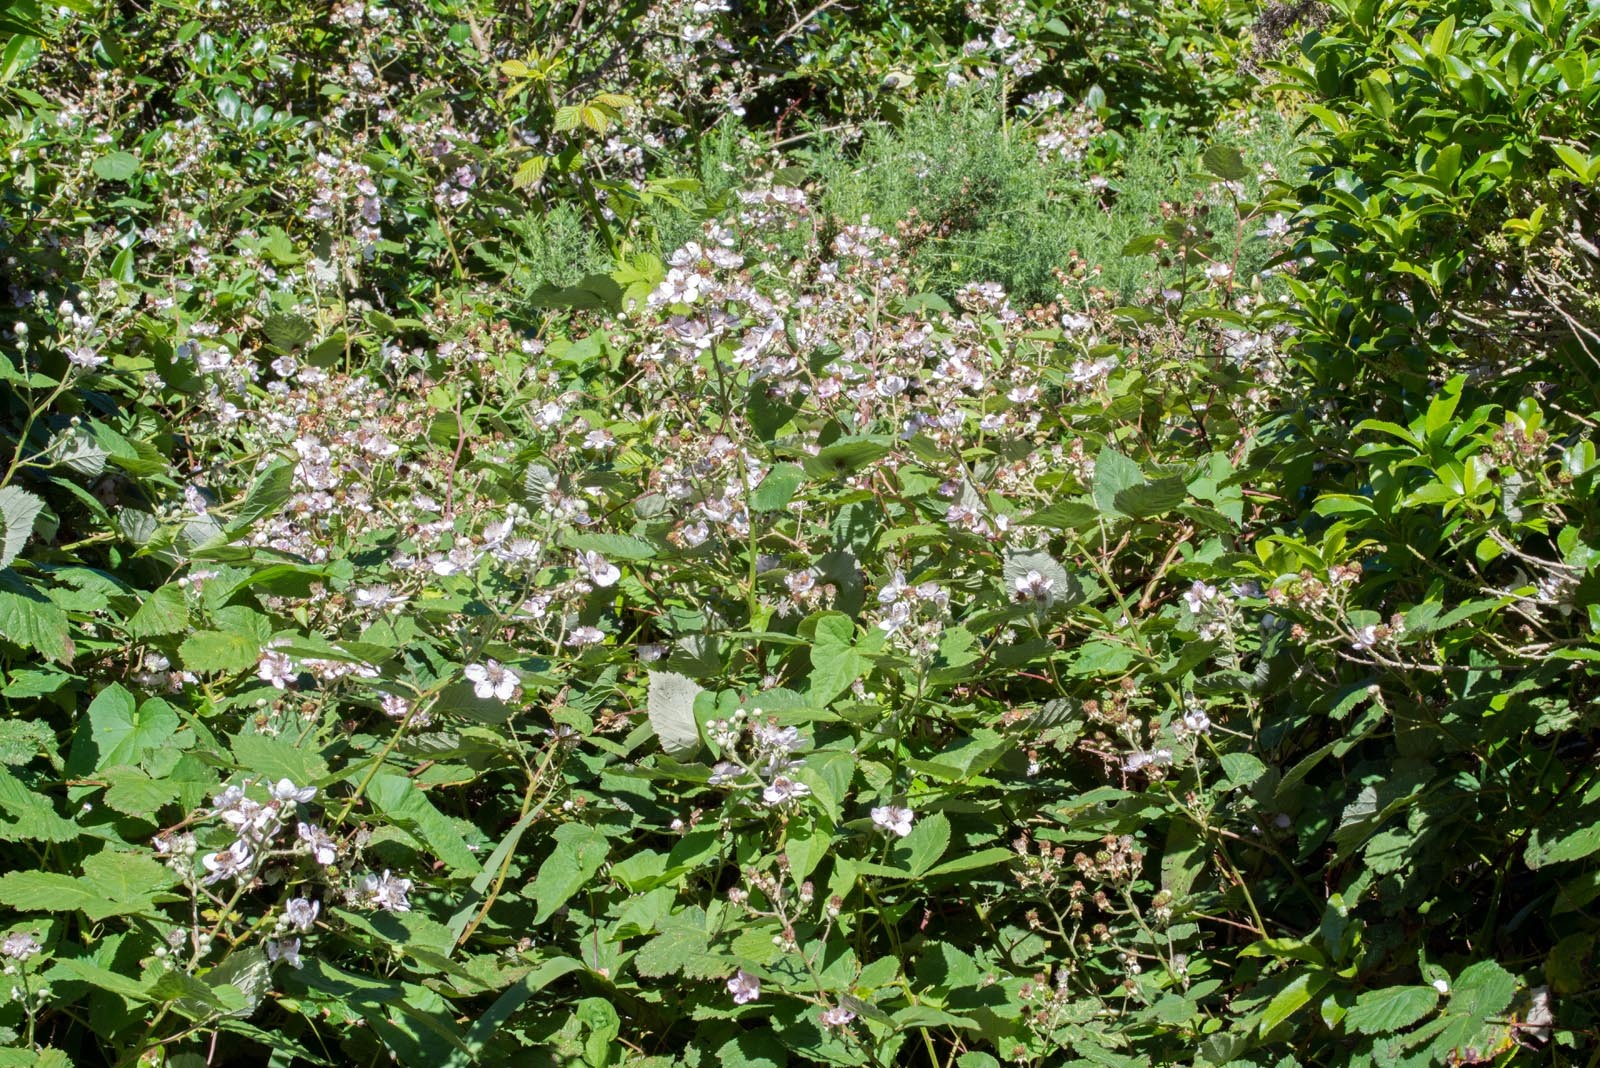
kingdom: Plantae
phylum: Tracheophyta
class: Magnoliopsida
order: Rosales
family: Rosaceae
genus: Rubus
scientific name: Rubus armeniacus
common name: Himalayan blackberry
